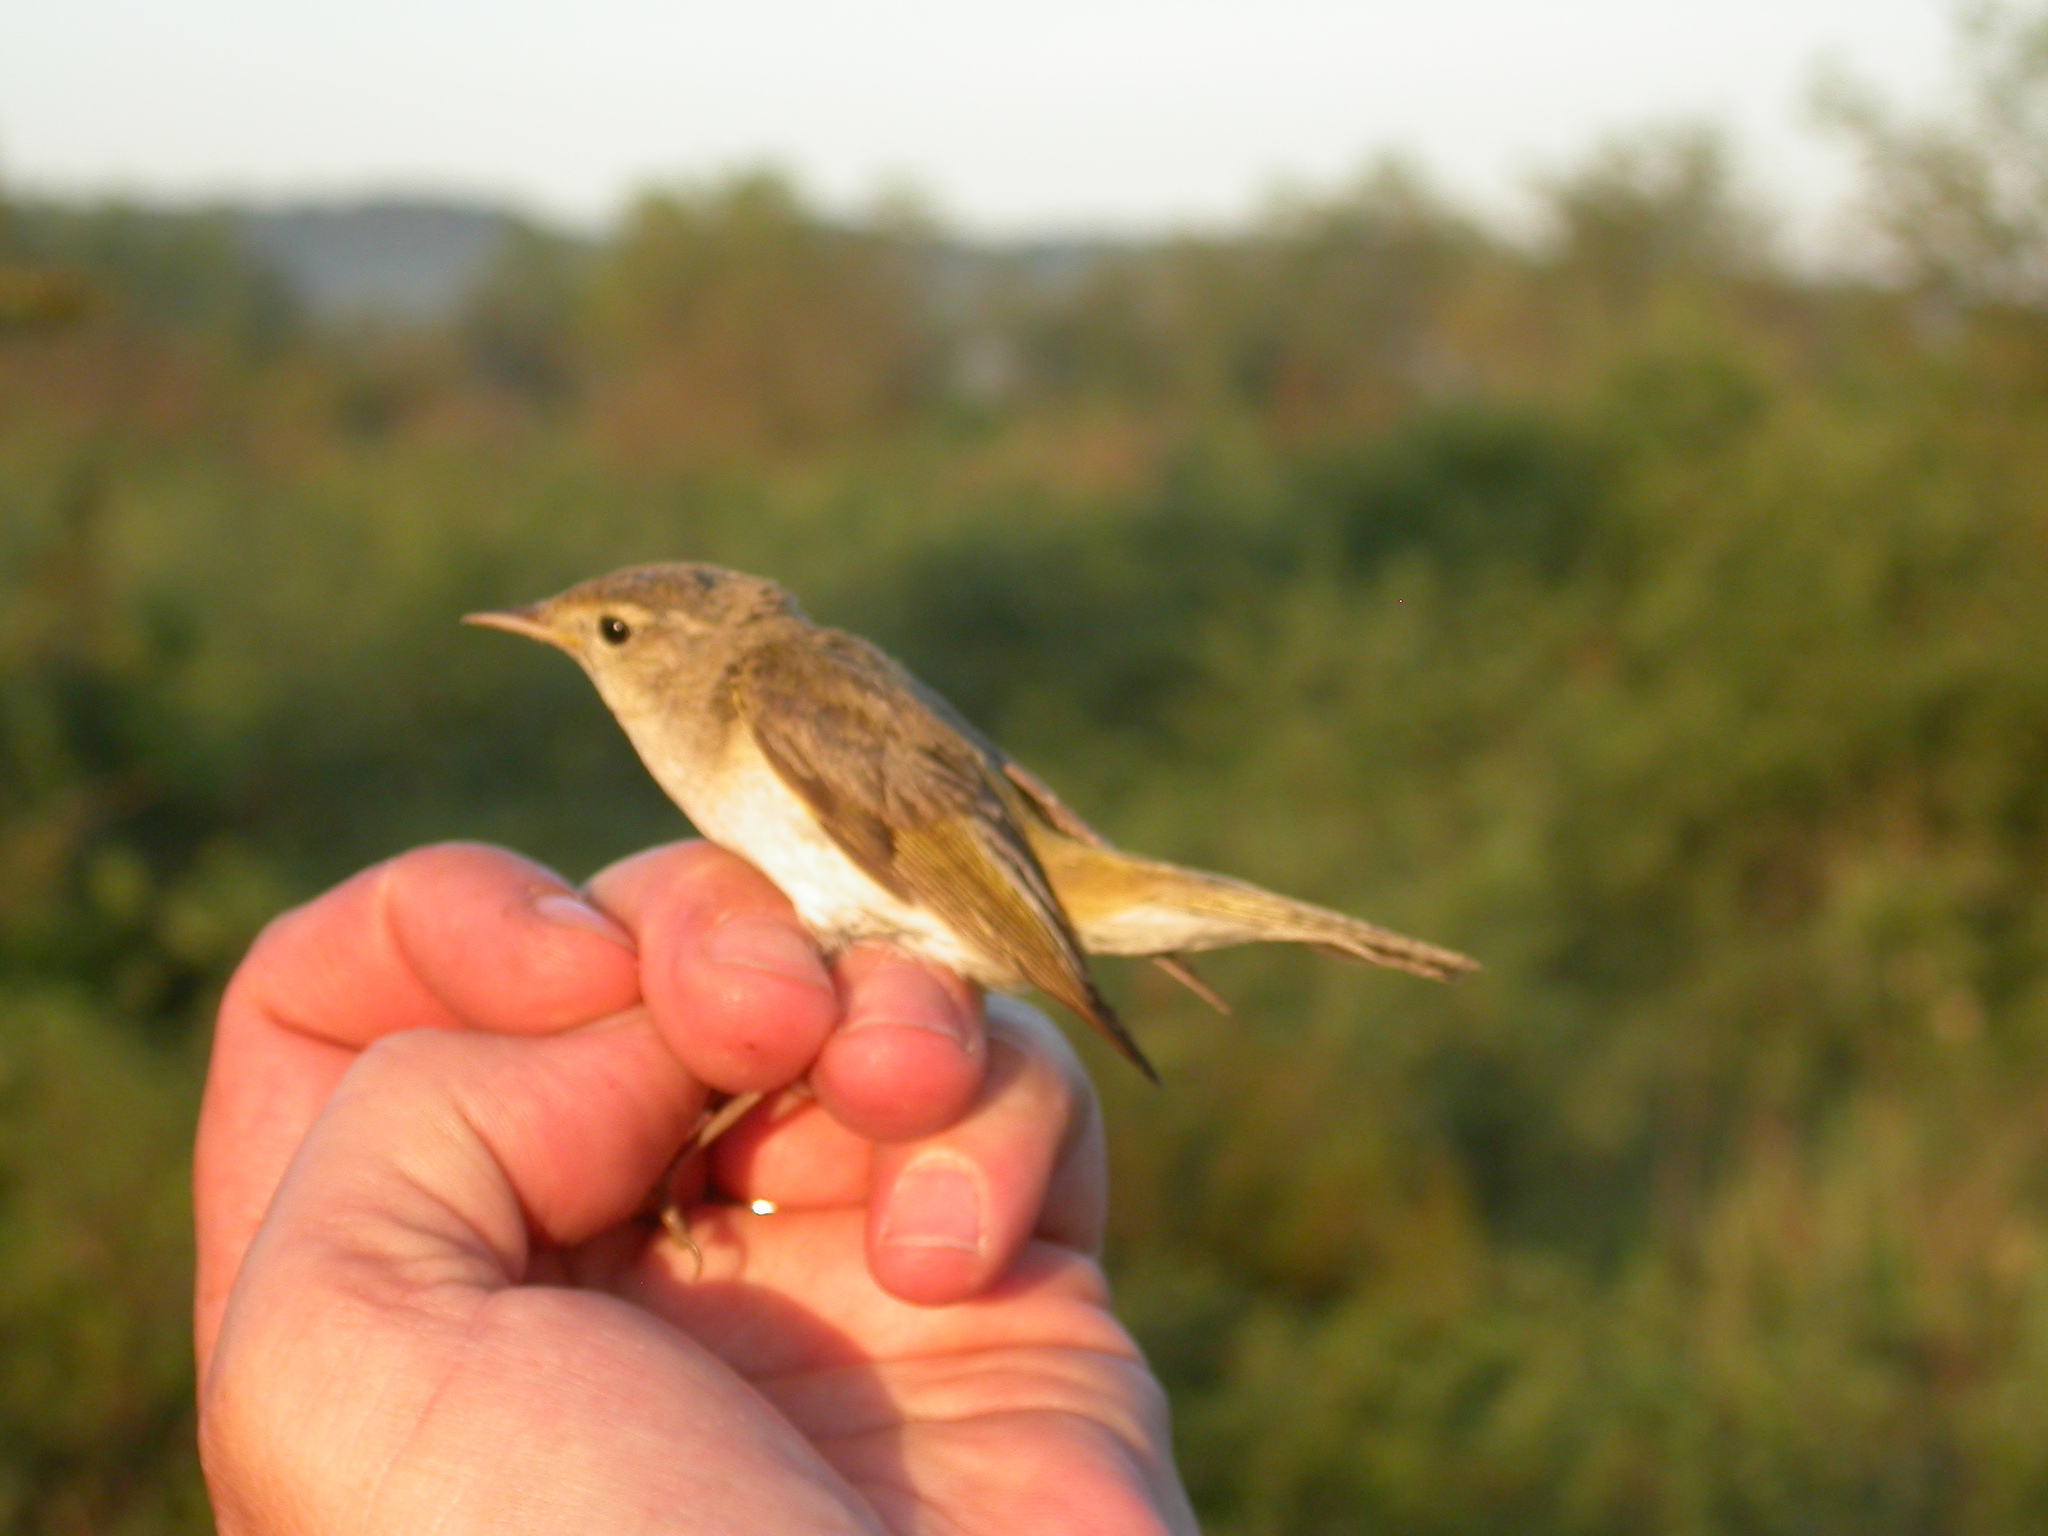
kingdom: Animalia
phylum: Chordata
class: Aves
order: Passeriformes
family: Phylloscopidae
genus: Phylloscopus
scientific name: Phylloscopus bonelli
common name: Western bonelli's warbler
